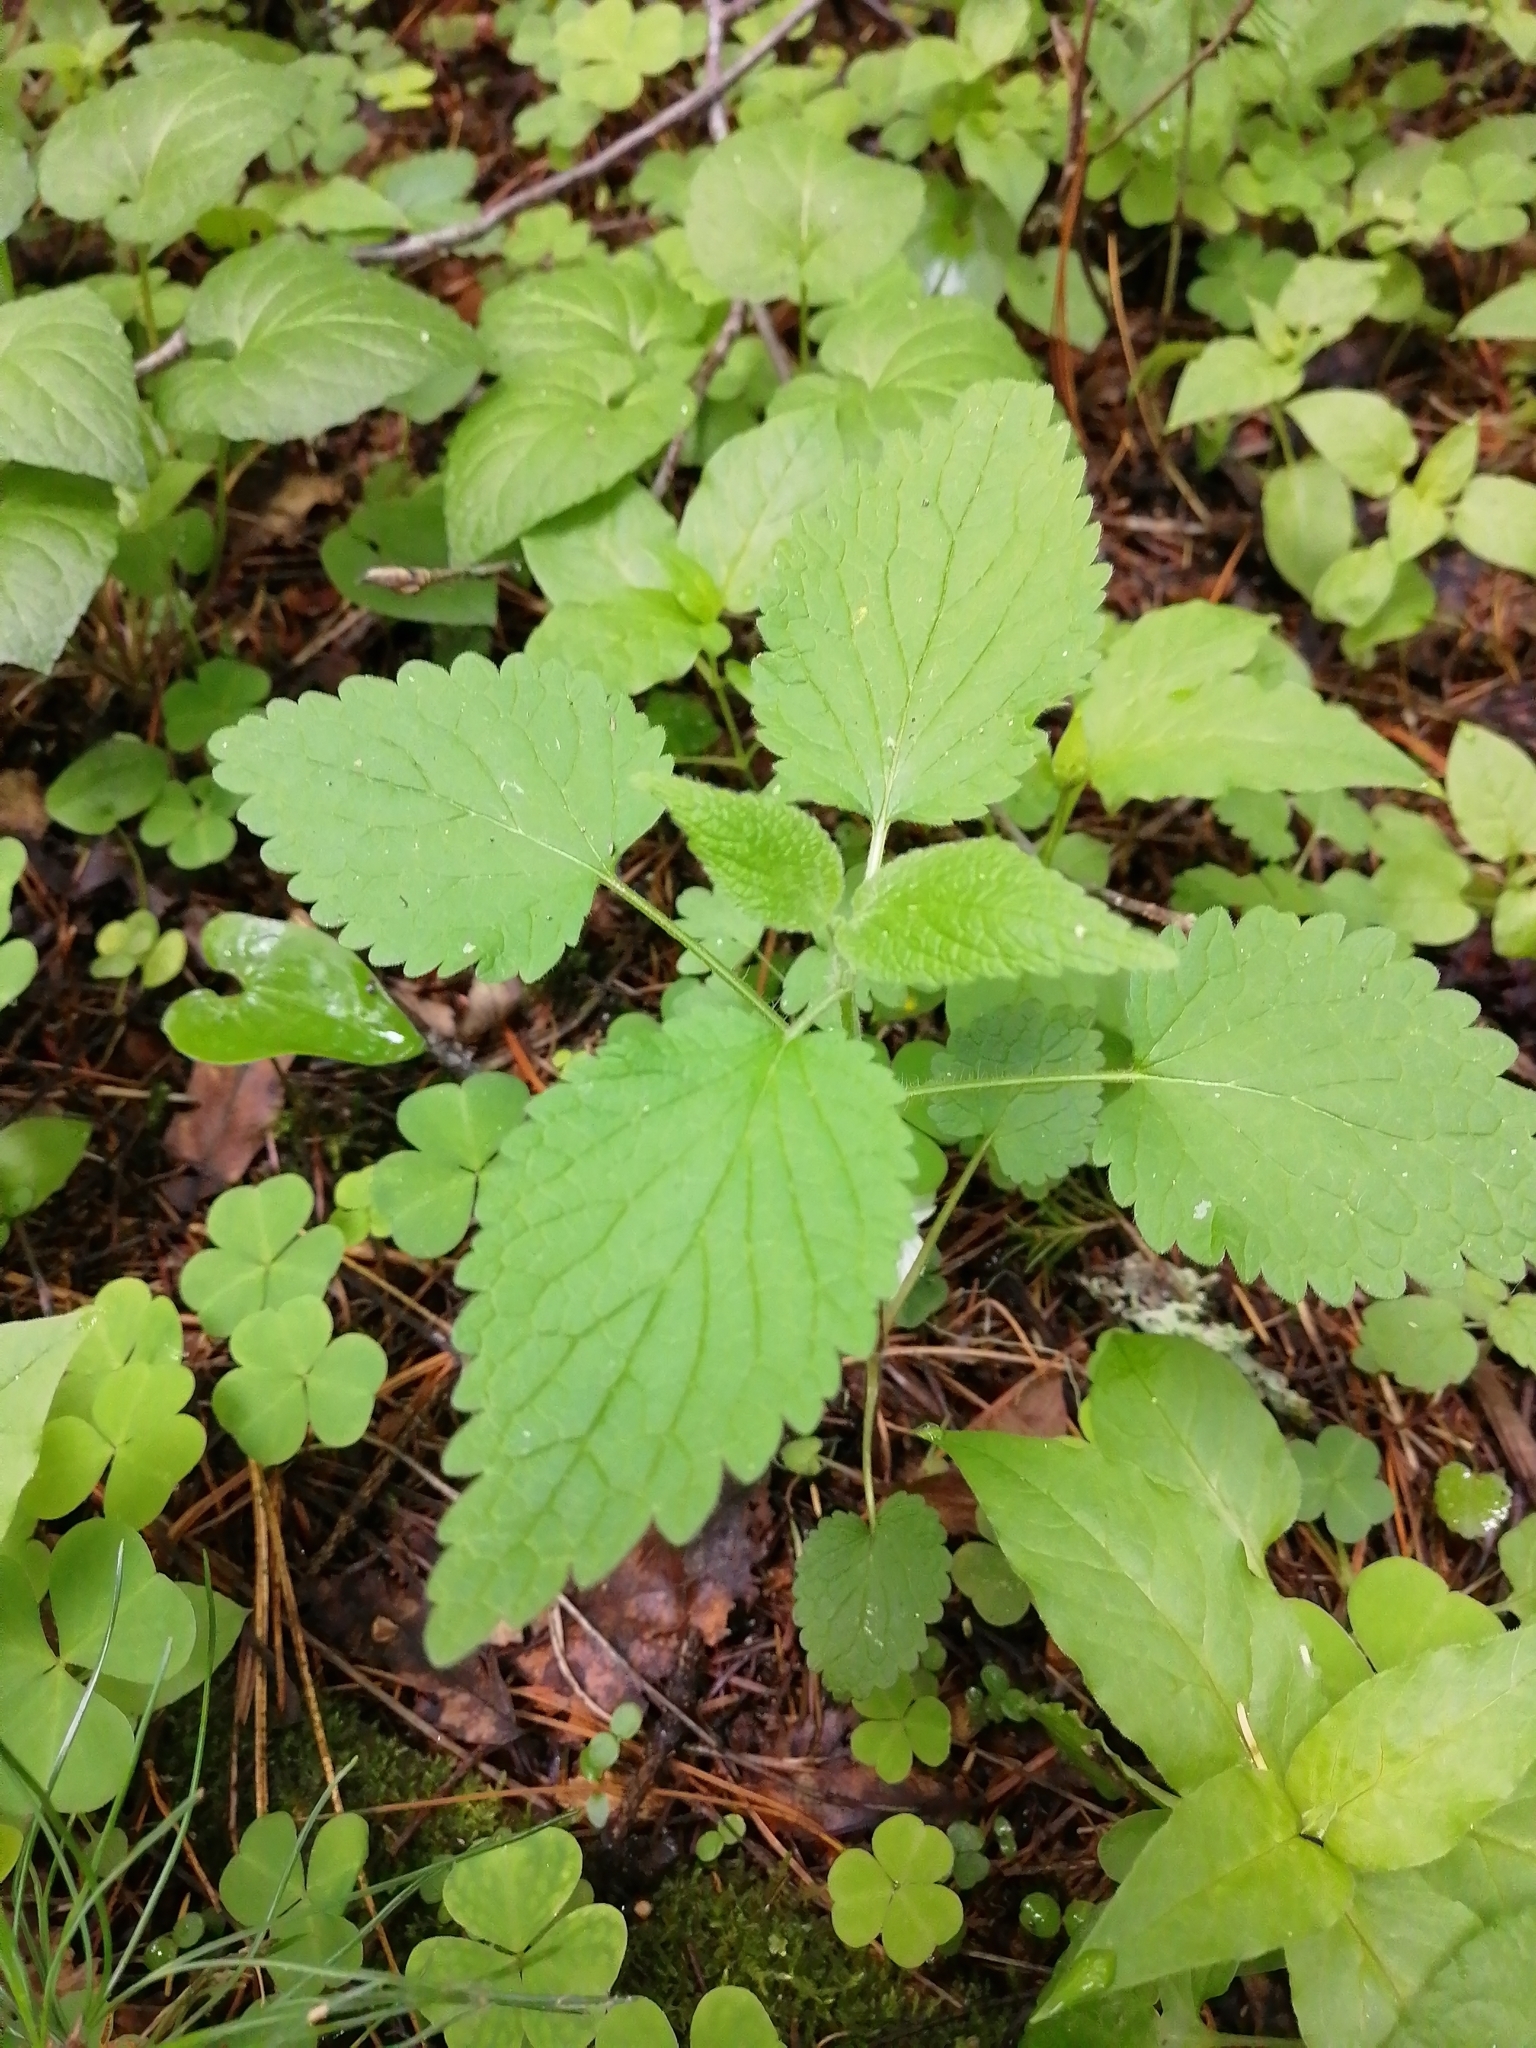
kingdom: Plantae
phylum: Tracheophyta
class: Magnoliopsida
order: Lamiales
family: Lamiaceae
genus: Lamium
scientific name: Lamium album
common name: White dead-nettle
